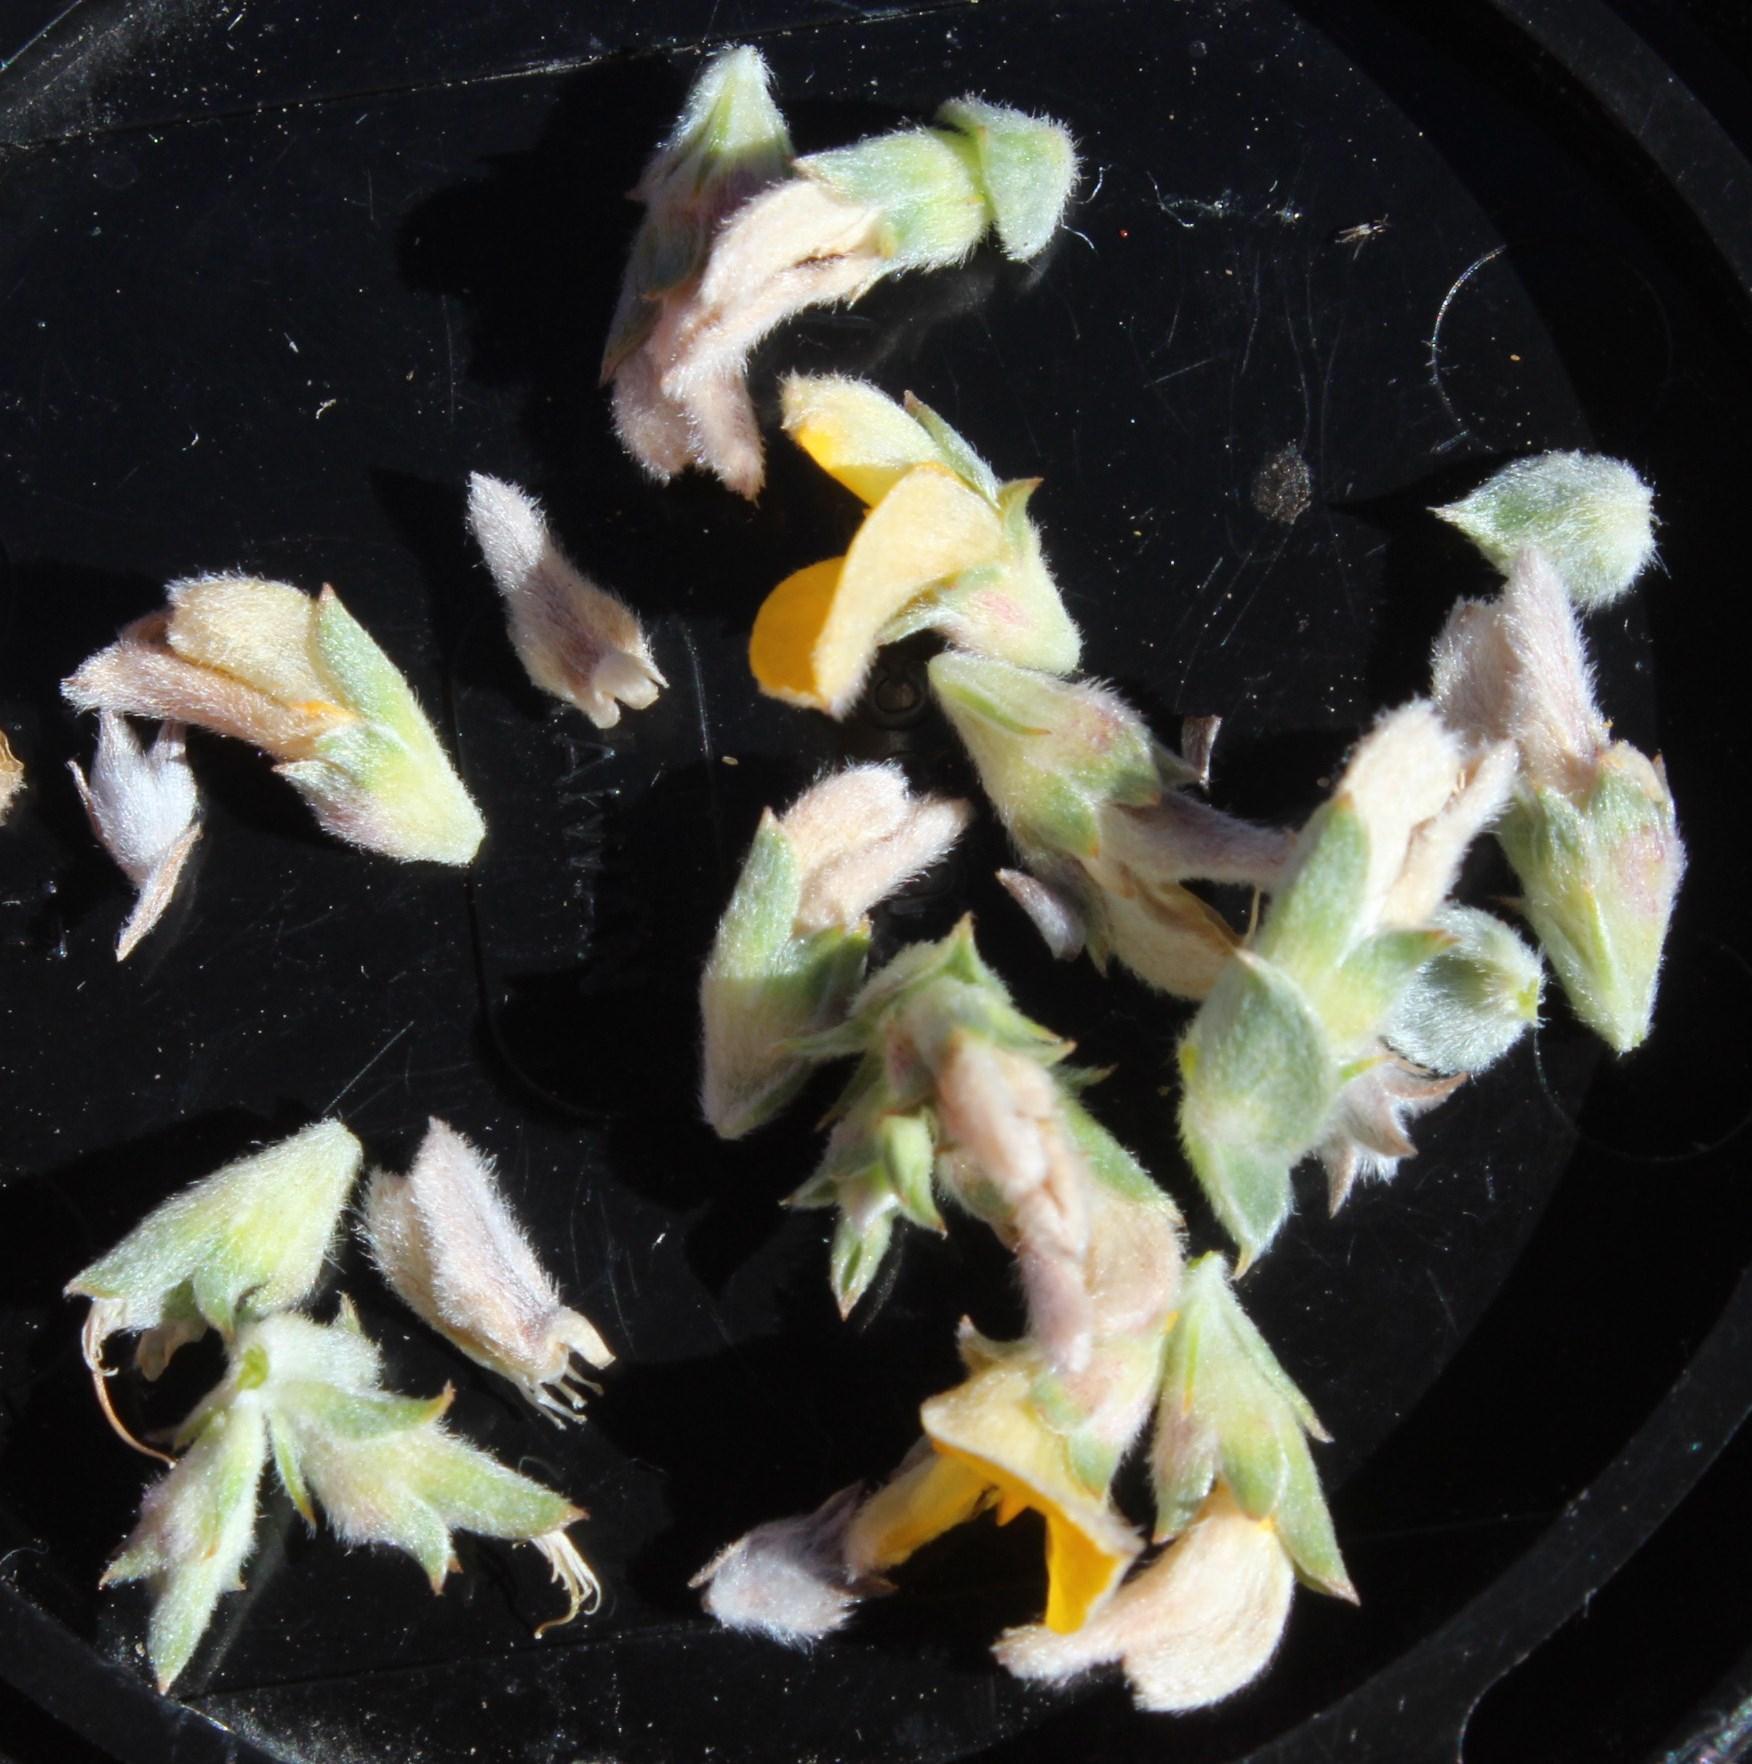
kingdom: Plantae
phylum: Tracheophyta
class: Magnoliopsida
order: Fabales
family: Fabaceae
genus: Aspalathus
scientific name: Aspalathus polycephala
